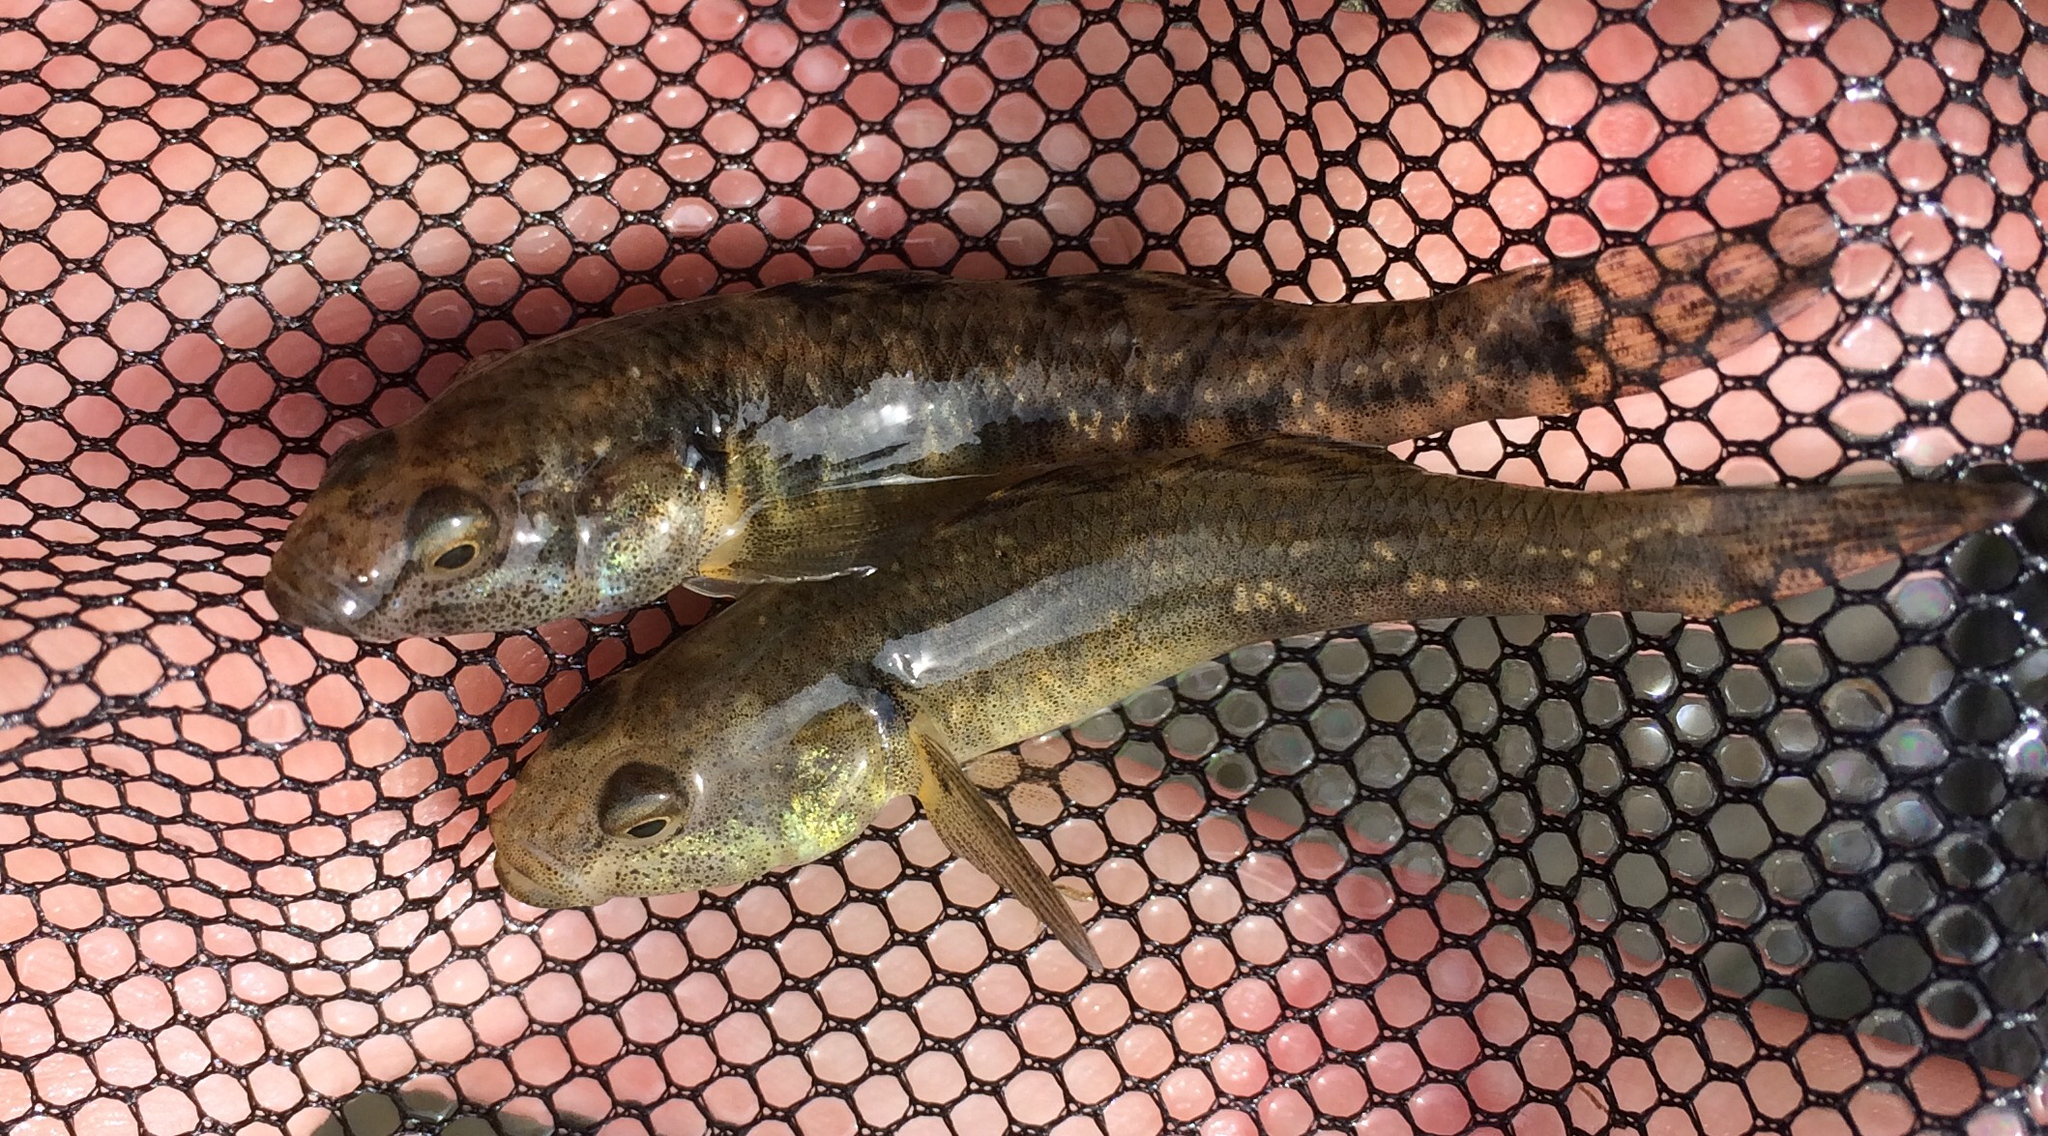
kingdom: Animalia
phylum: Chordata
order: Perciformes
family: Eleotridae
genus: Gobiomorphus
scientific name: Gobiomorphus cotidianus
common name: Common bully
